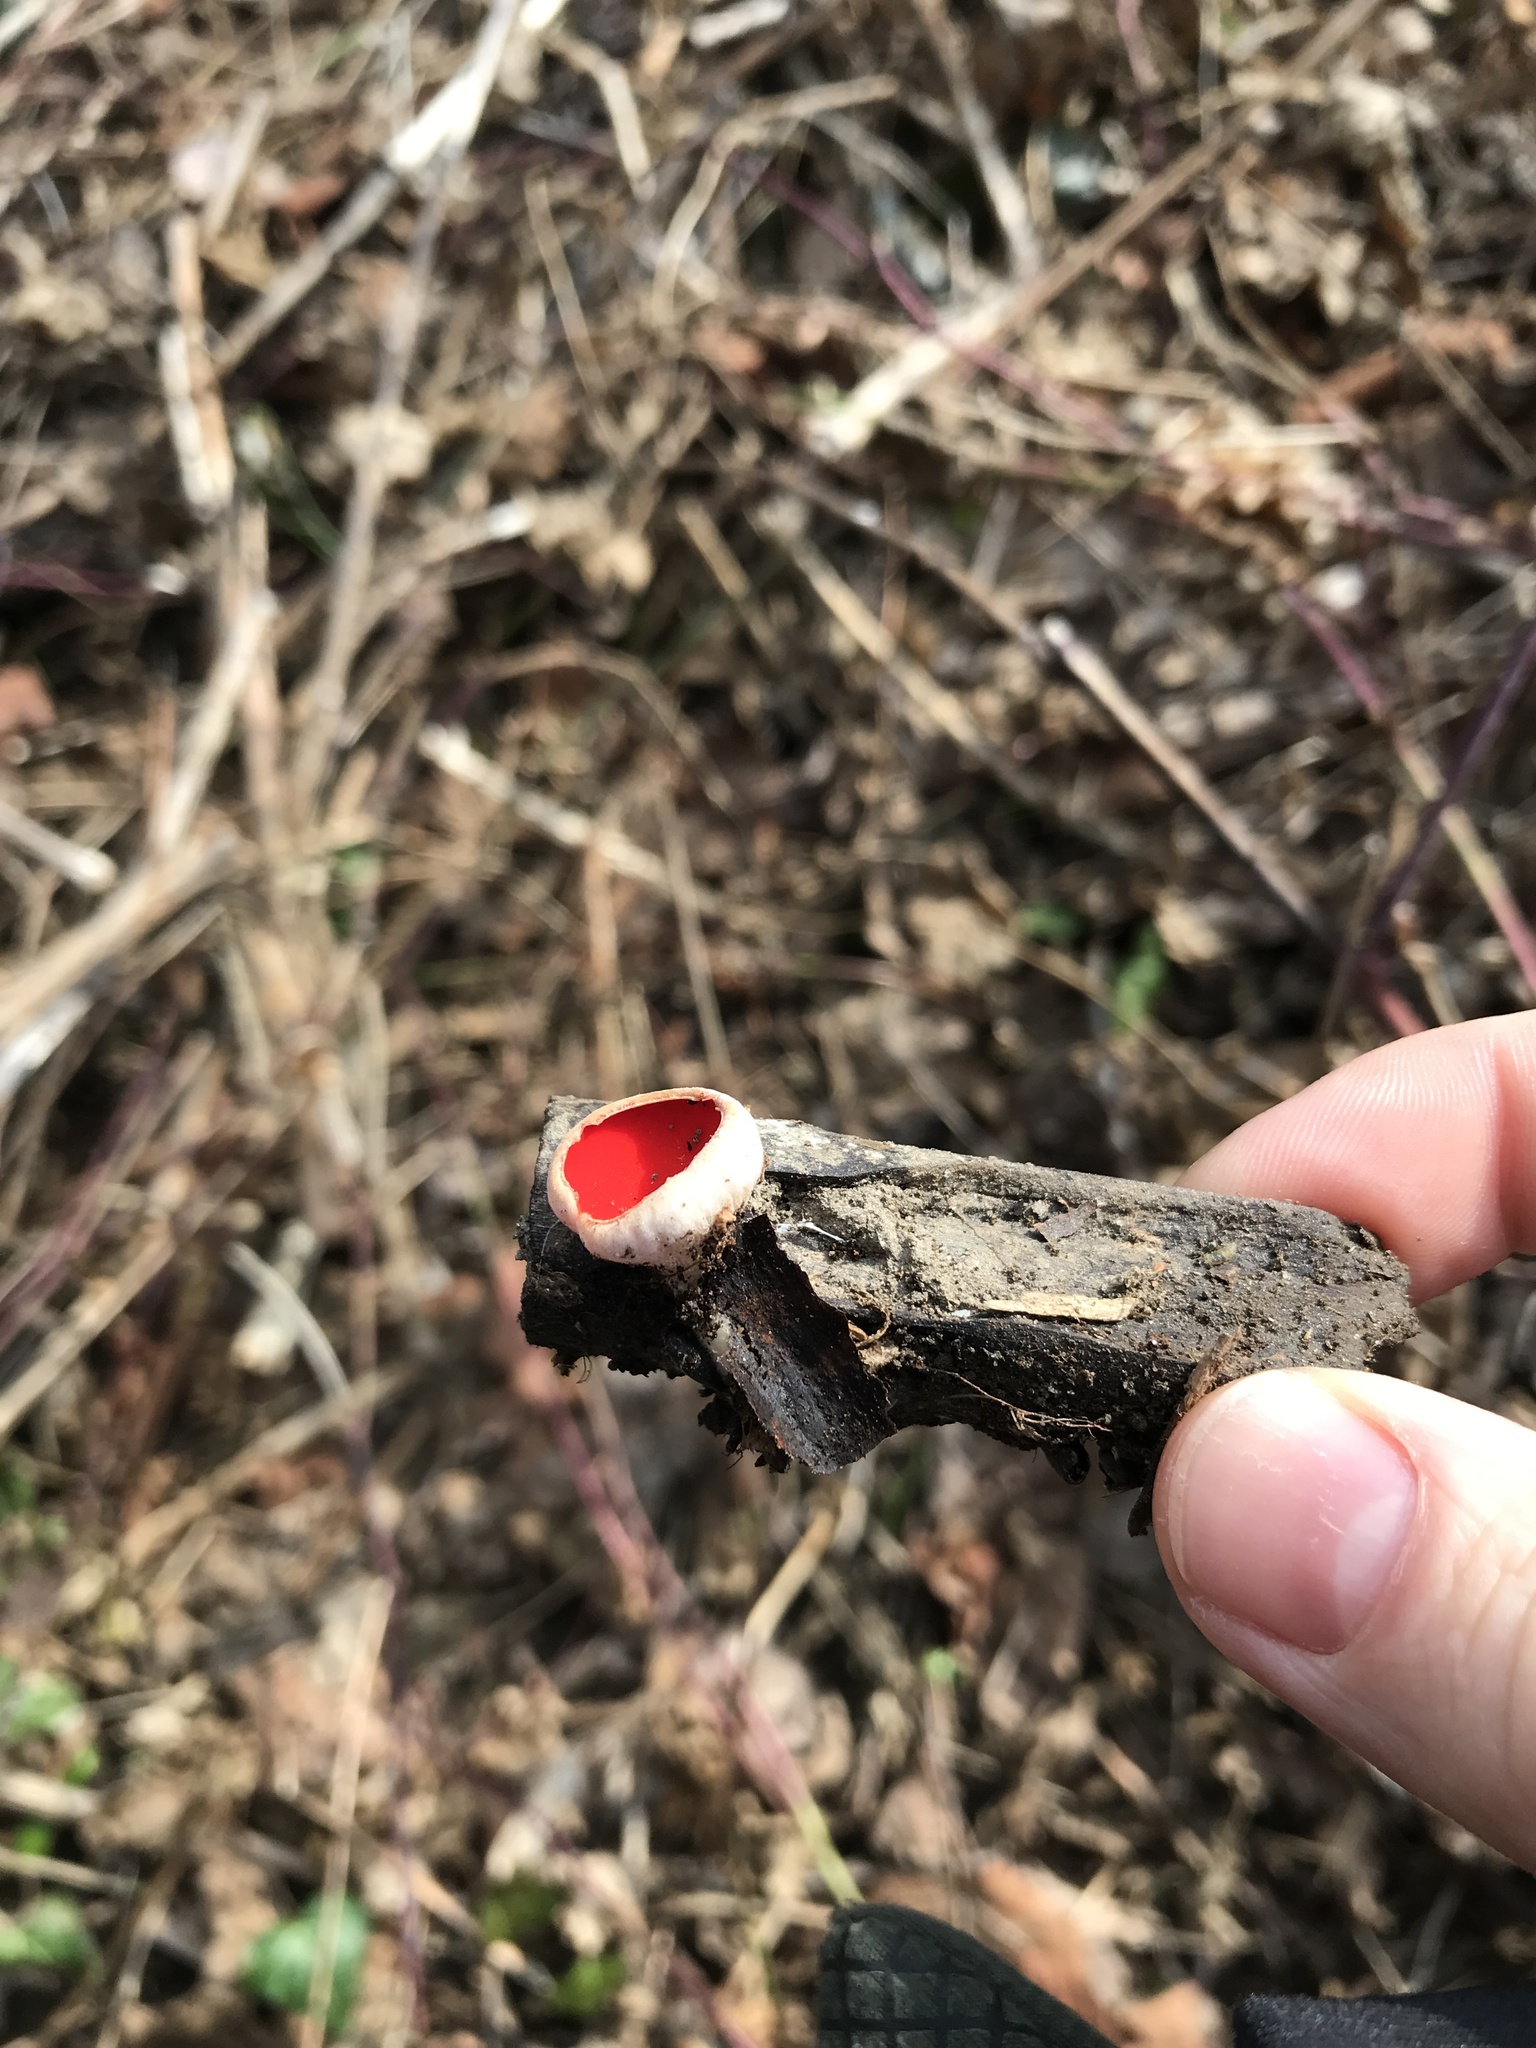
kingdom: Fungi
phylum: Ascomycota
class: Pezizomycetes
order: Pezizales
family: Sarcoscyphaceae
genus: Sarcoscypha
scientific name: Sarcoscypha
